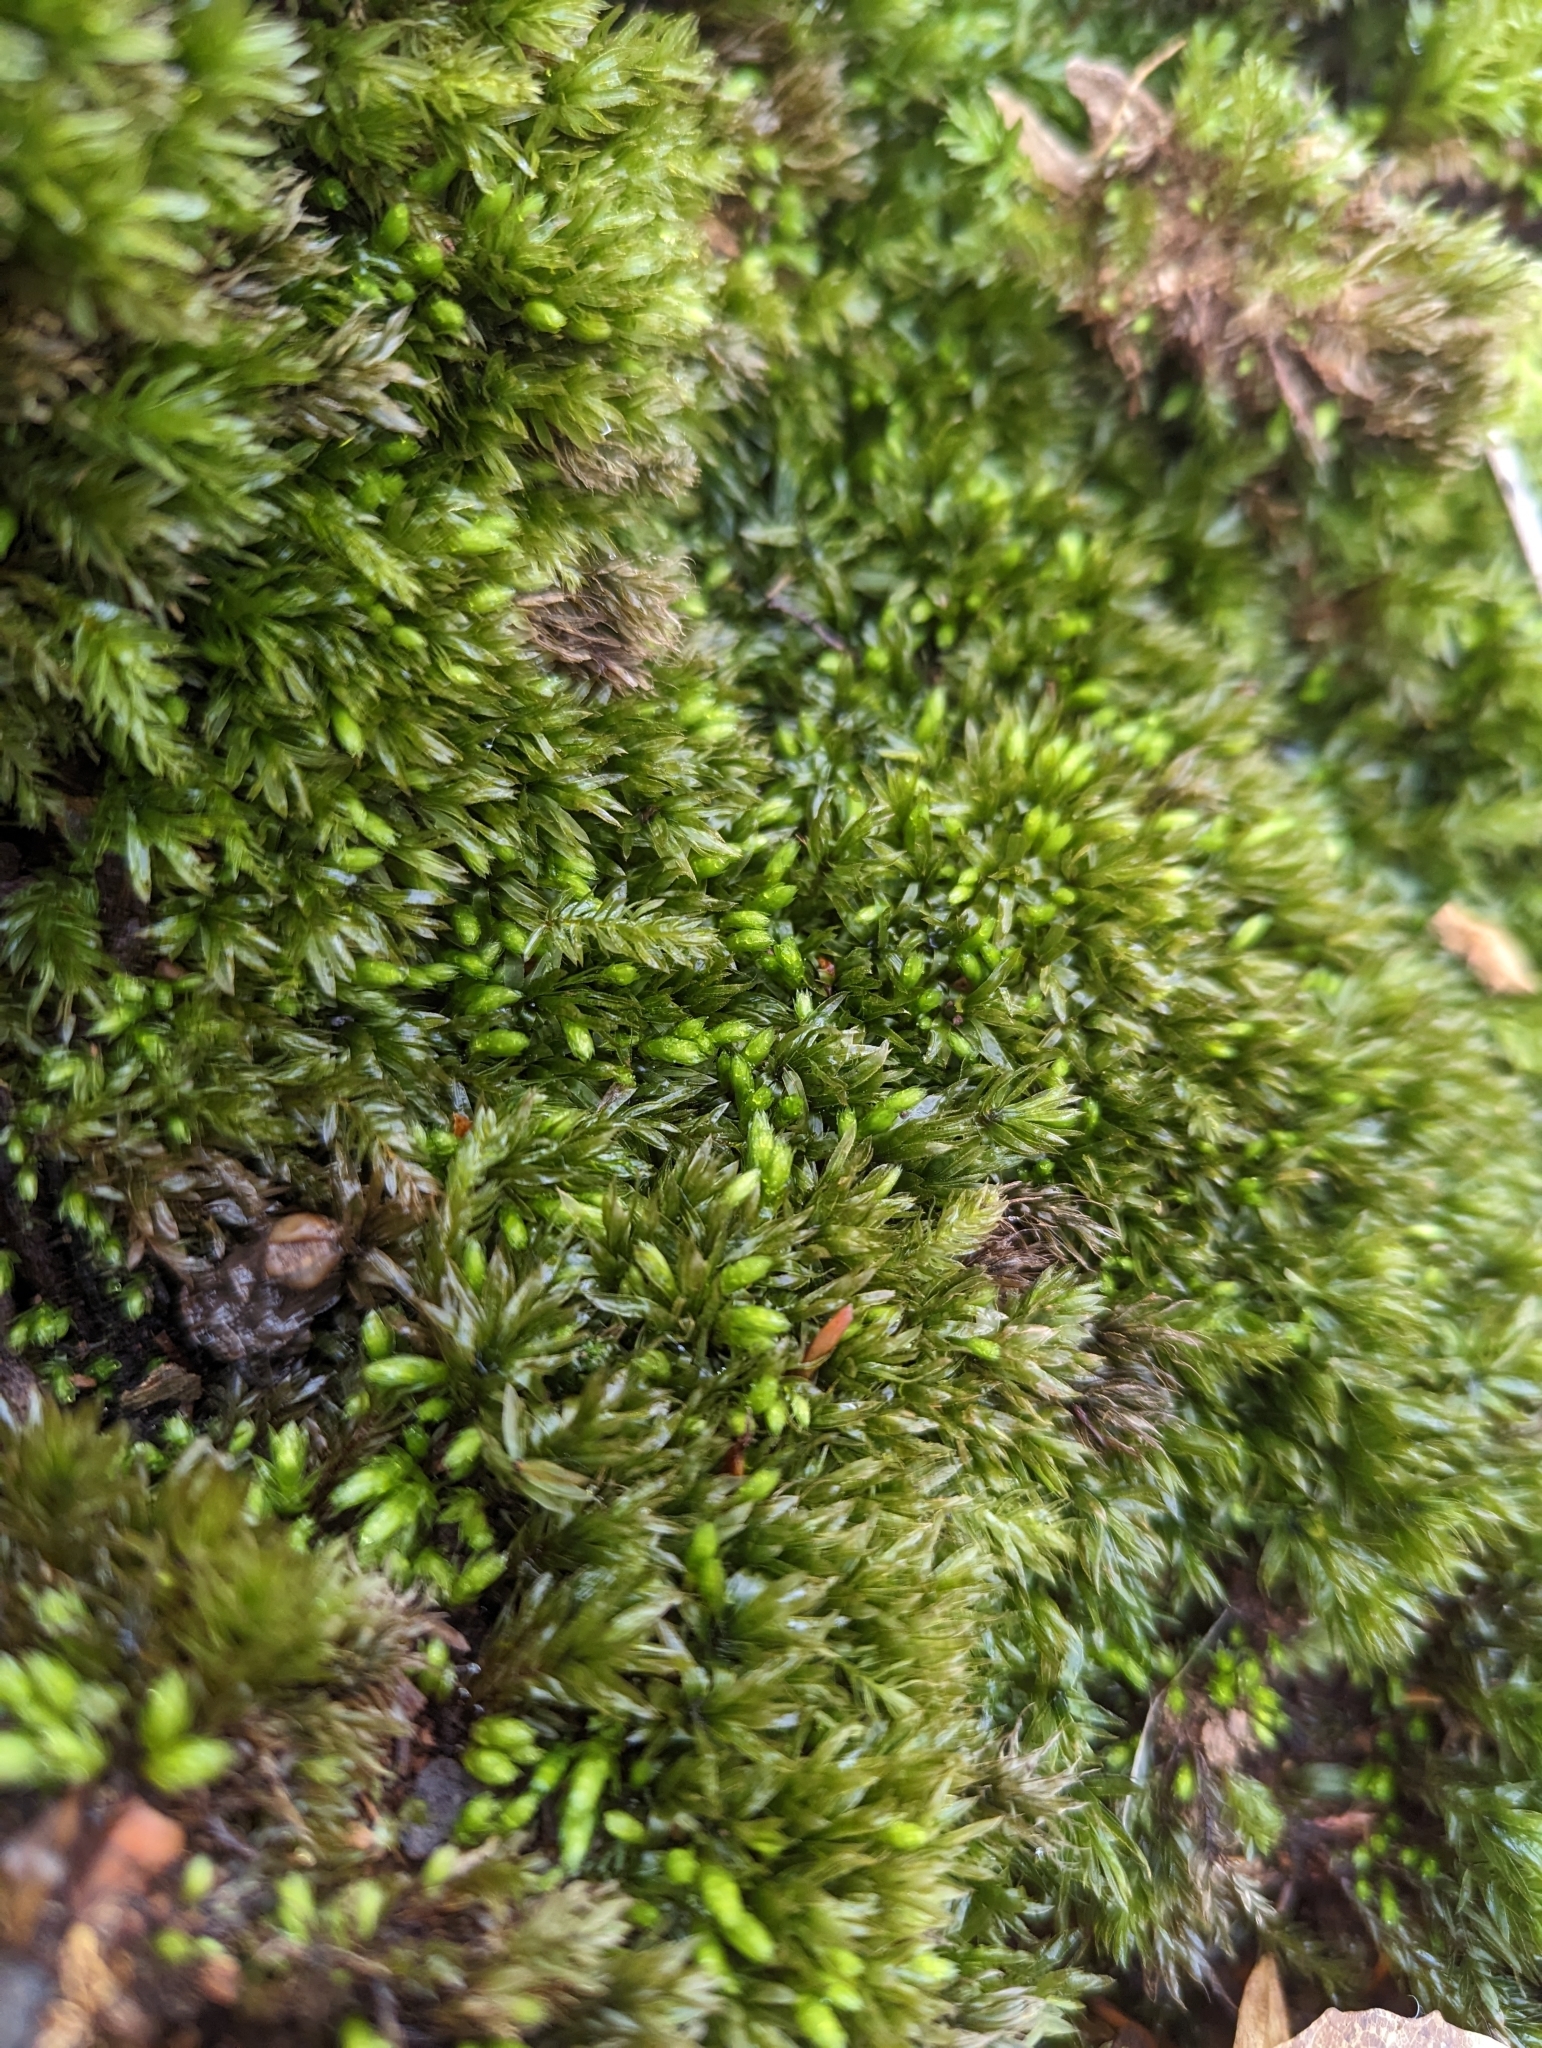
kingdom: Plantae
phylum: Bryophyta
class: Bryopsida
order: Bryales
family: Mniaceae
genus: Mnium
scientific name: Mnium hornum
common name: Swan's-neck leafy moss
